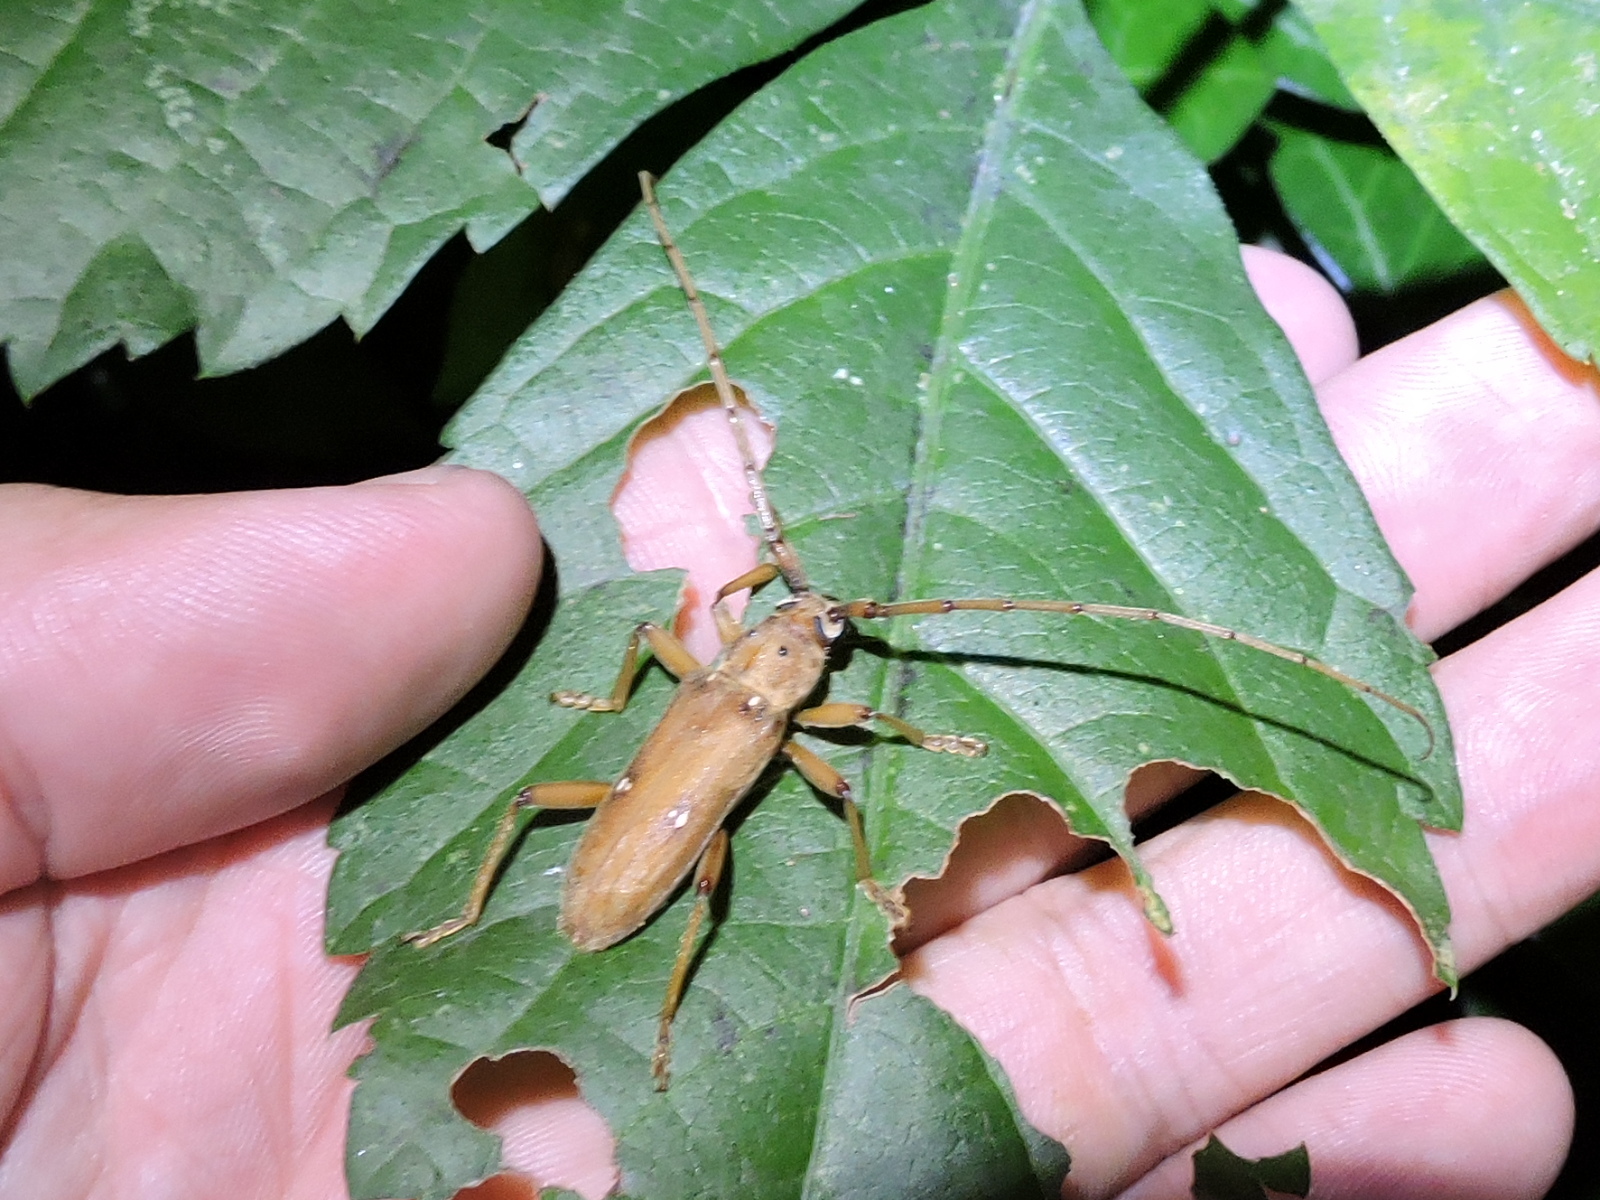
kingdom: Animalia
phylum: Arthropoda
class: Insecta
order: Coleoptera
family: Cerambycidae
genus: Eburia
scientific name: Eburia mutica
